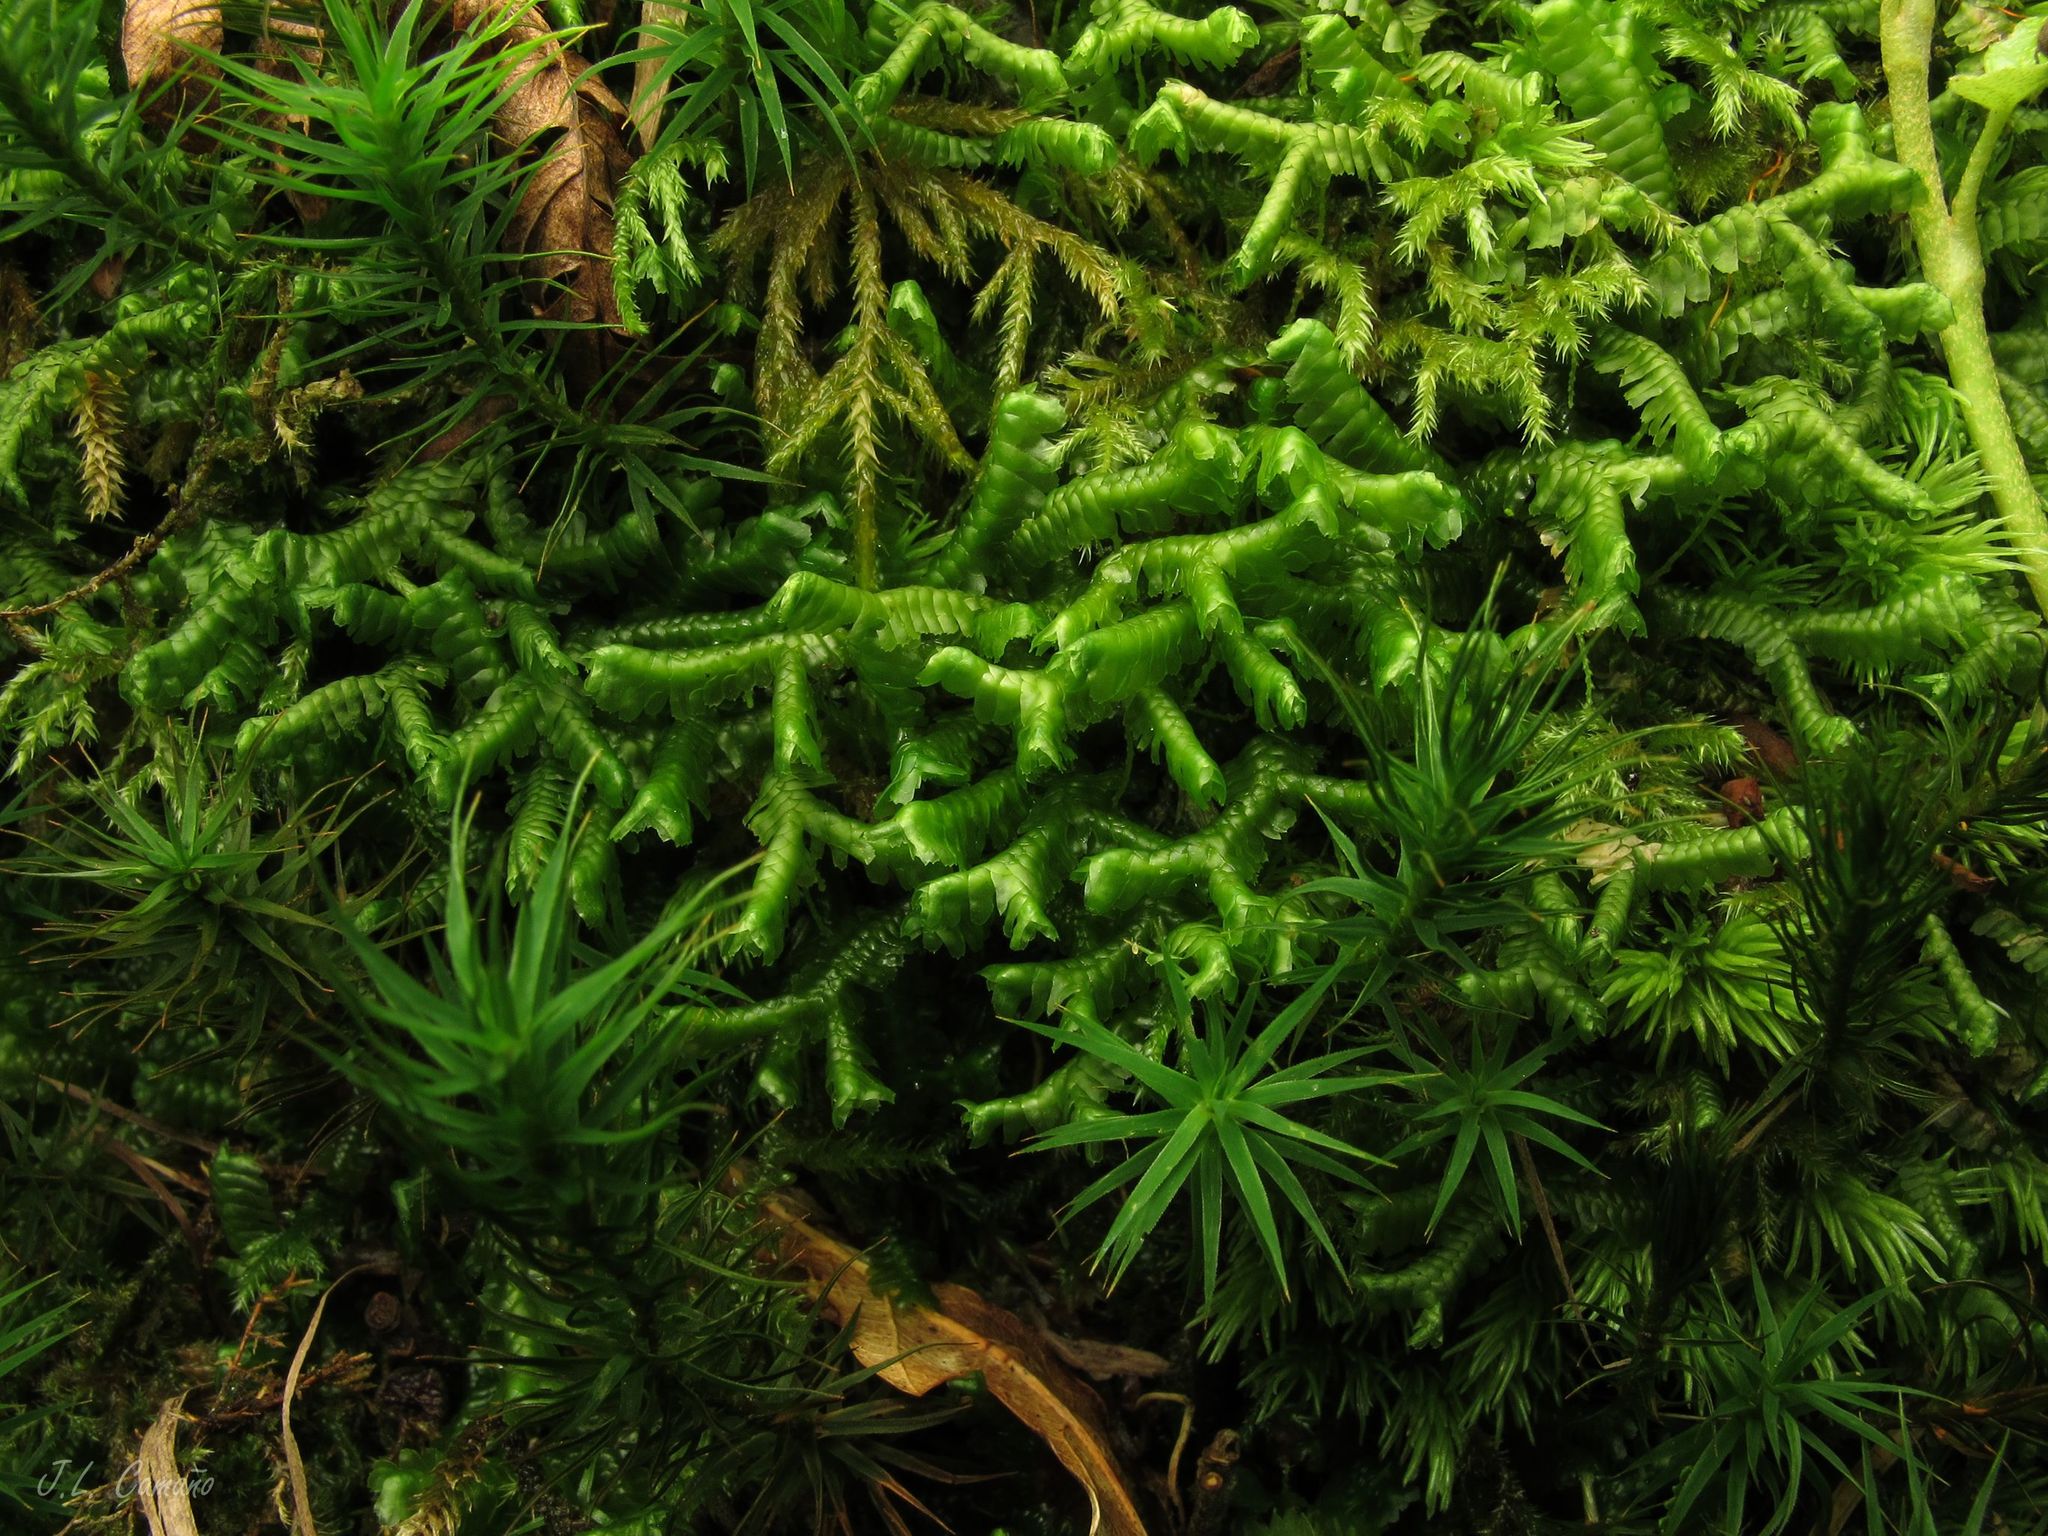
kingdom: Plantae
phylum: Marchantiophyta
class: Jungermanniopsida
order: Jungermanniales
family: Lepidoziaceae
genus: Bazzania
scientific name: Bazzania trilobata
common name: Three-lobed whipwort
